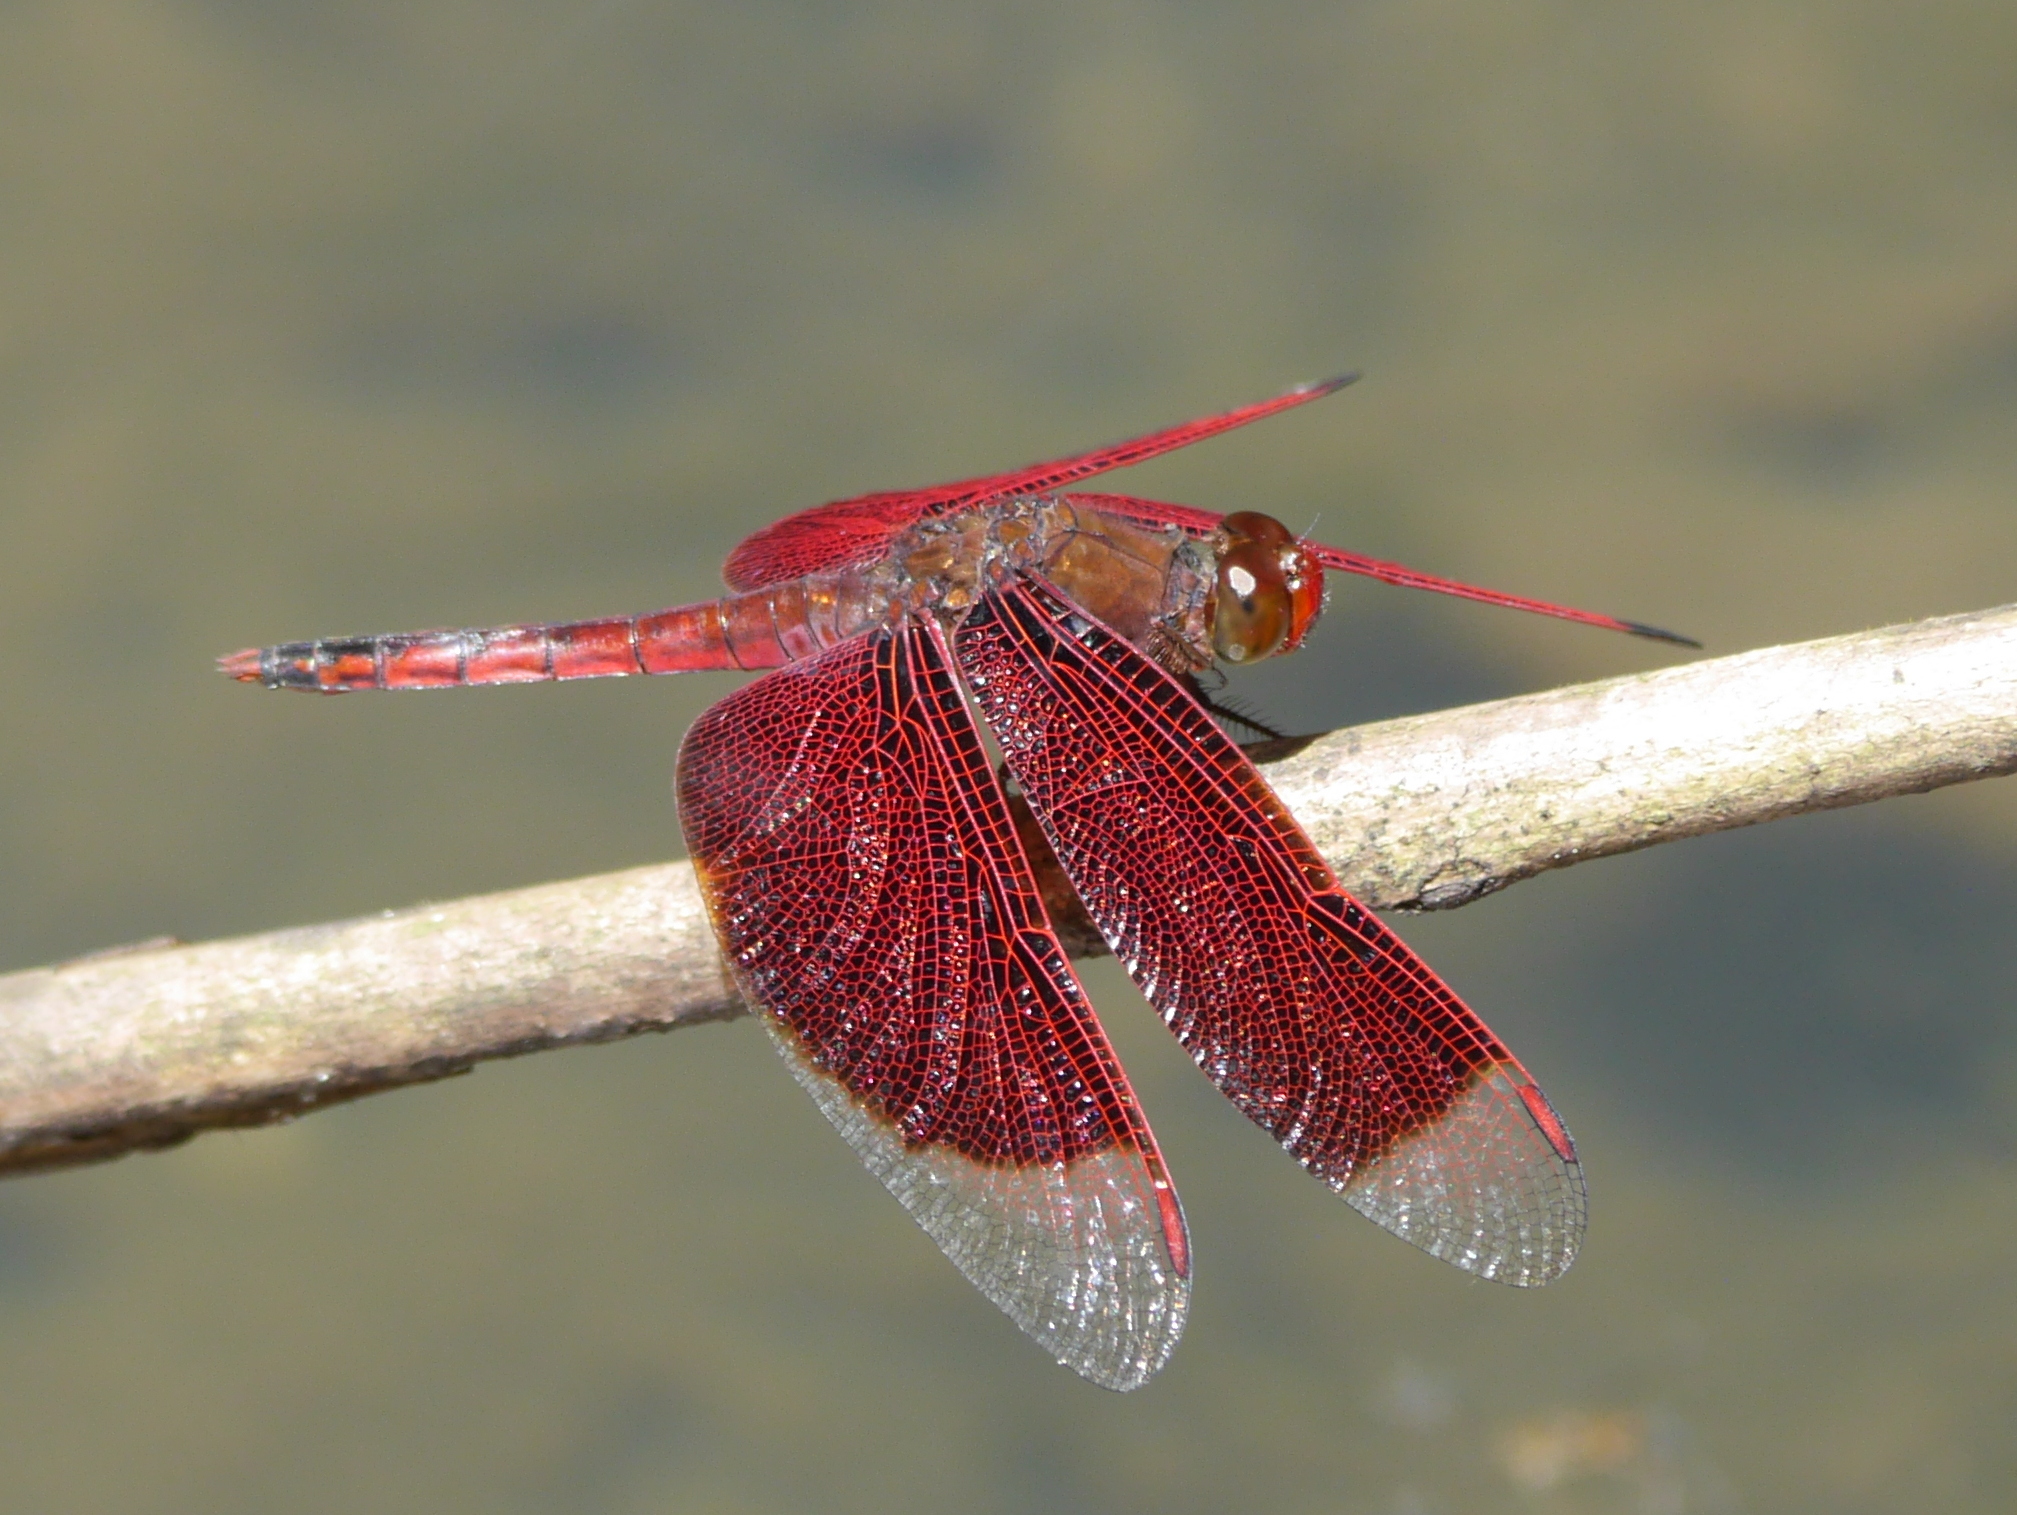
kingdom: Animalia
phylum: Arthropoda
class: Insecta
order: Odonata
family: Libellulidae
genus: Neurothemis
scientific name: Neurothemis ramburii
